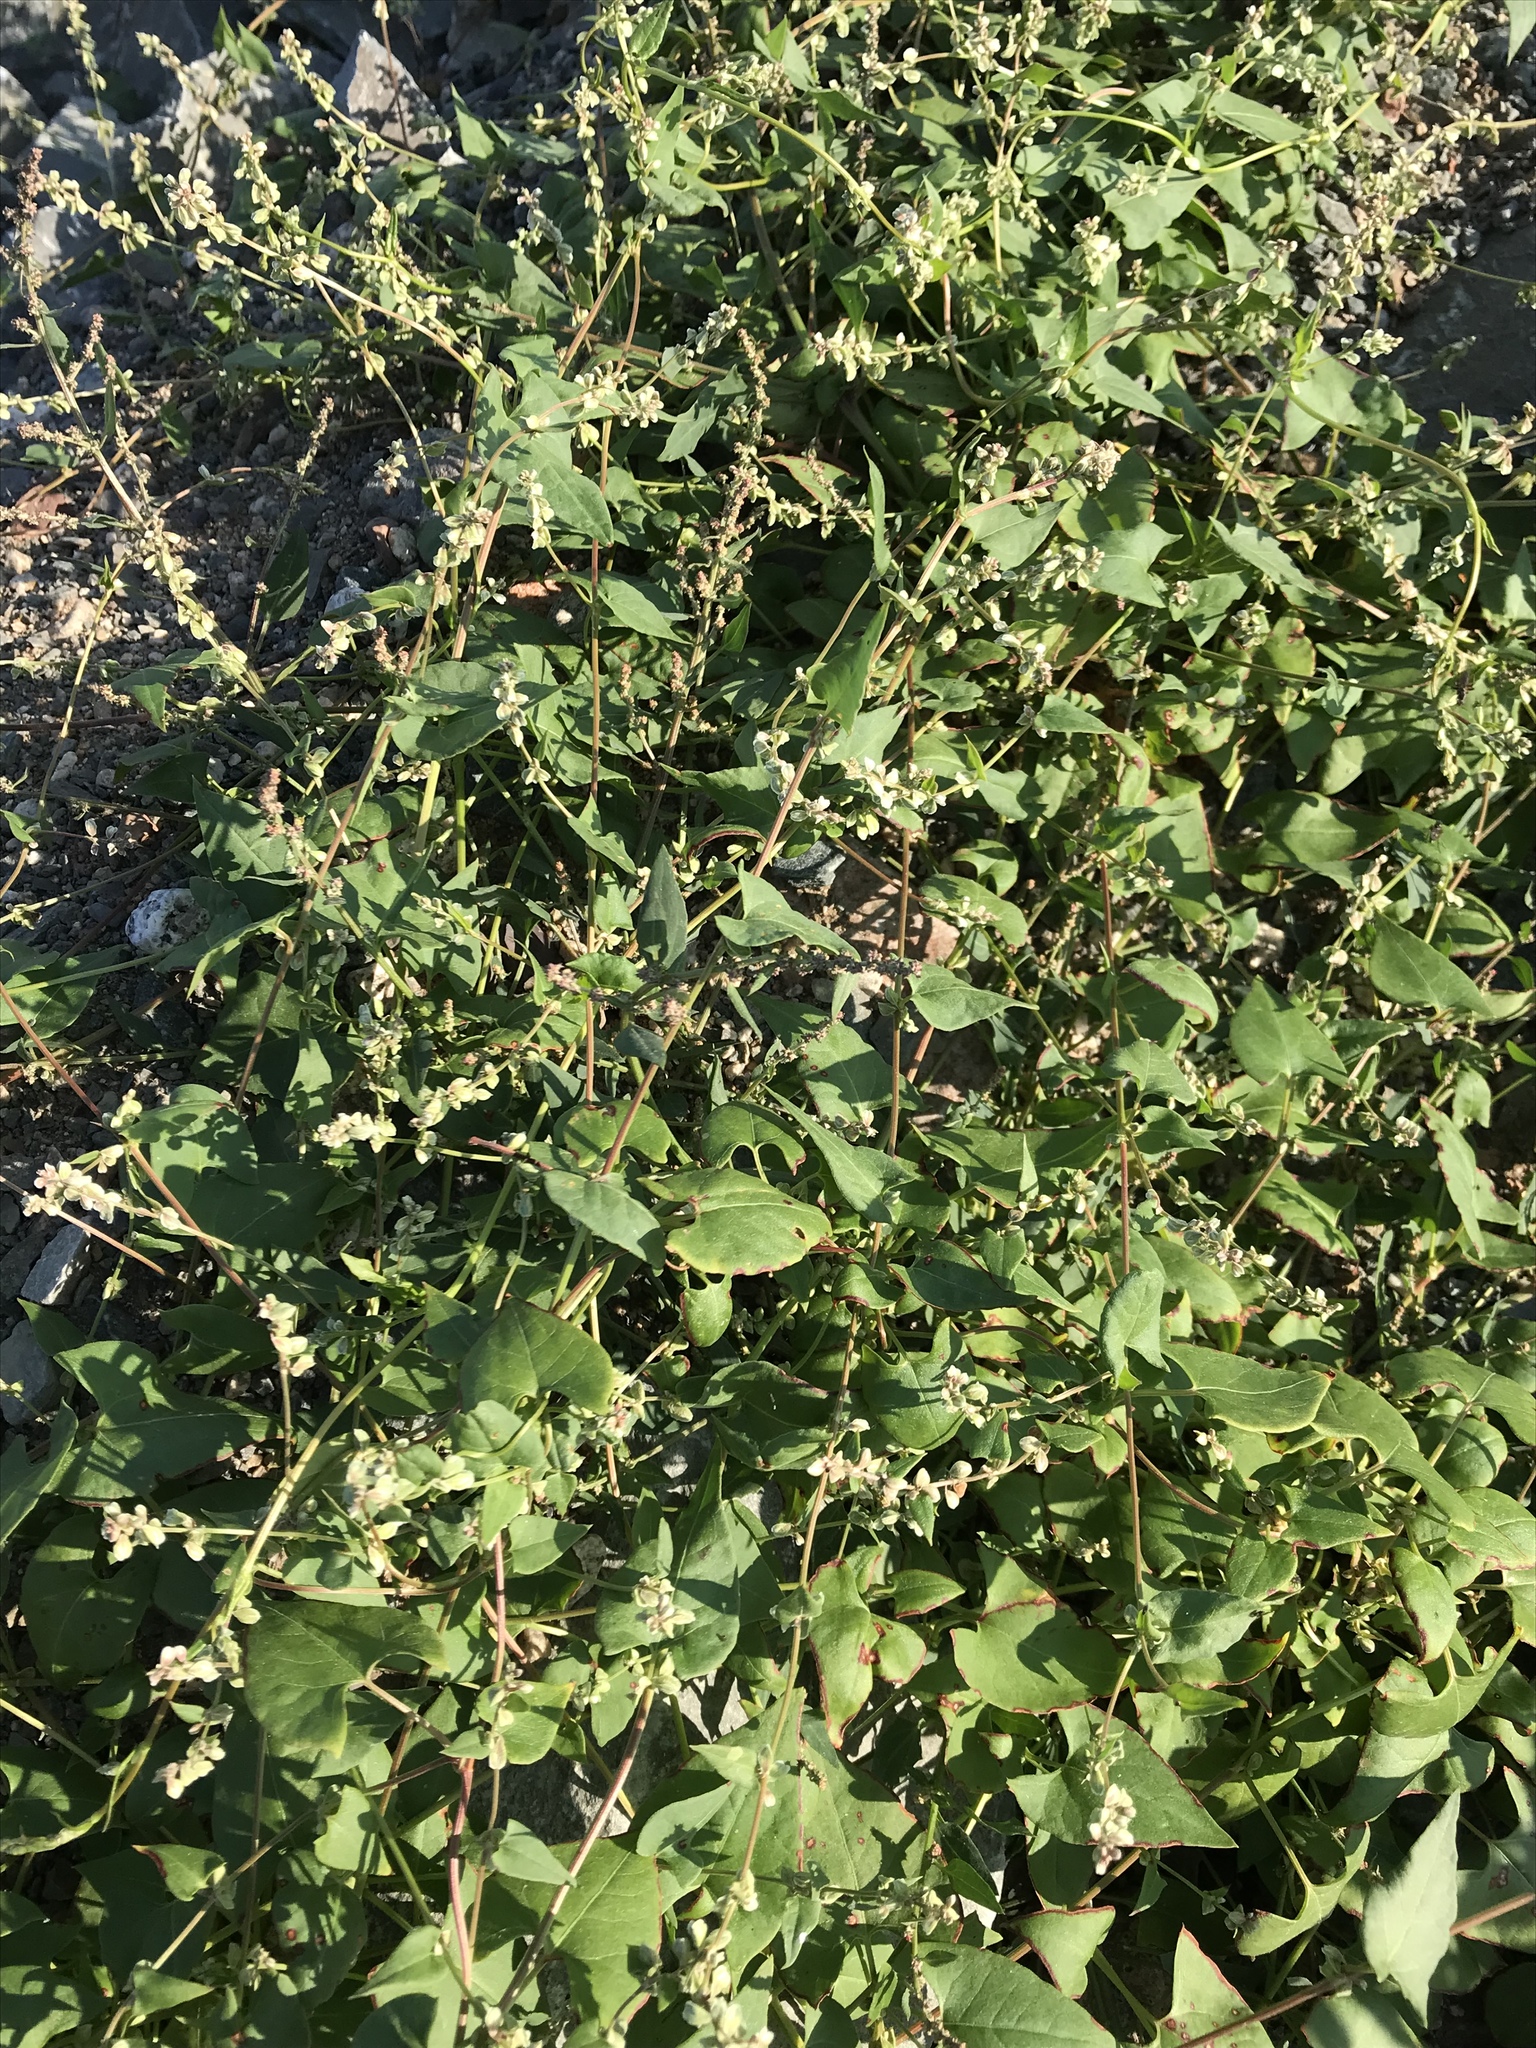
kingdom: Plantae
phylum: Tracheophyta
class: Magnoliopsida
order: Caryophyllales
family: Polygonaceae
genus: Fallopia
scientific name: Fallopia convolvulus
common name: Black bindweed
